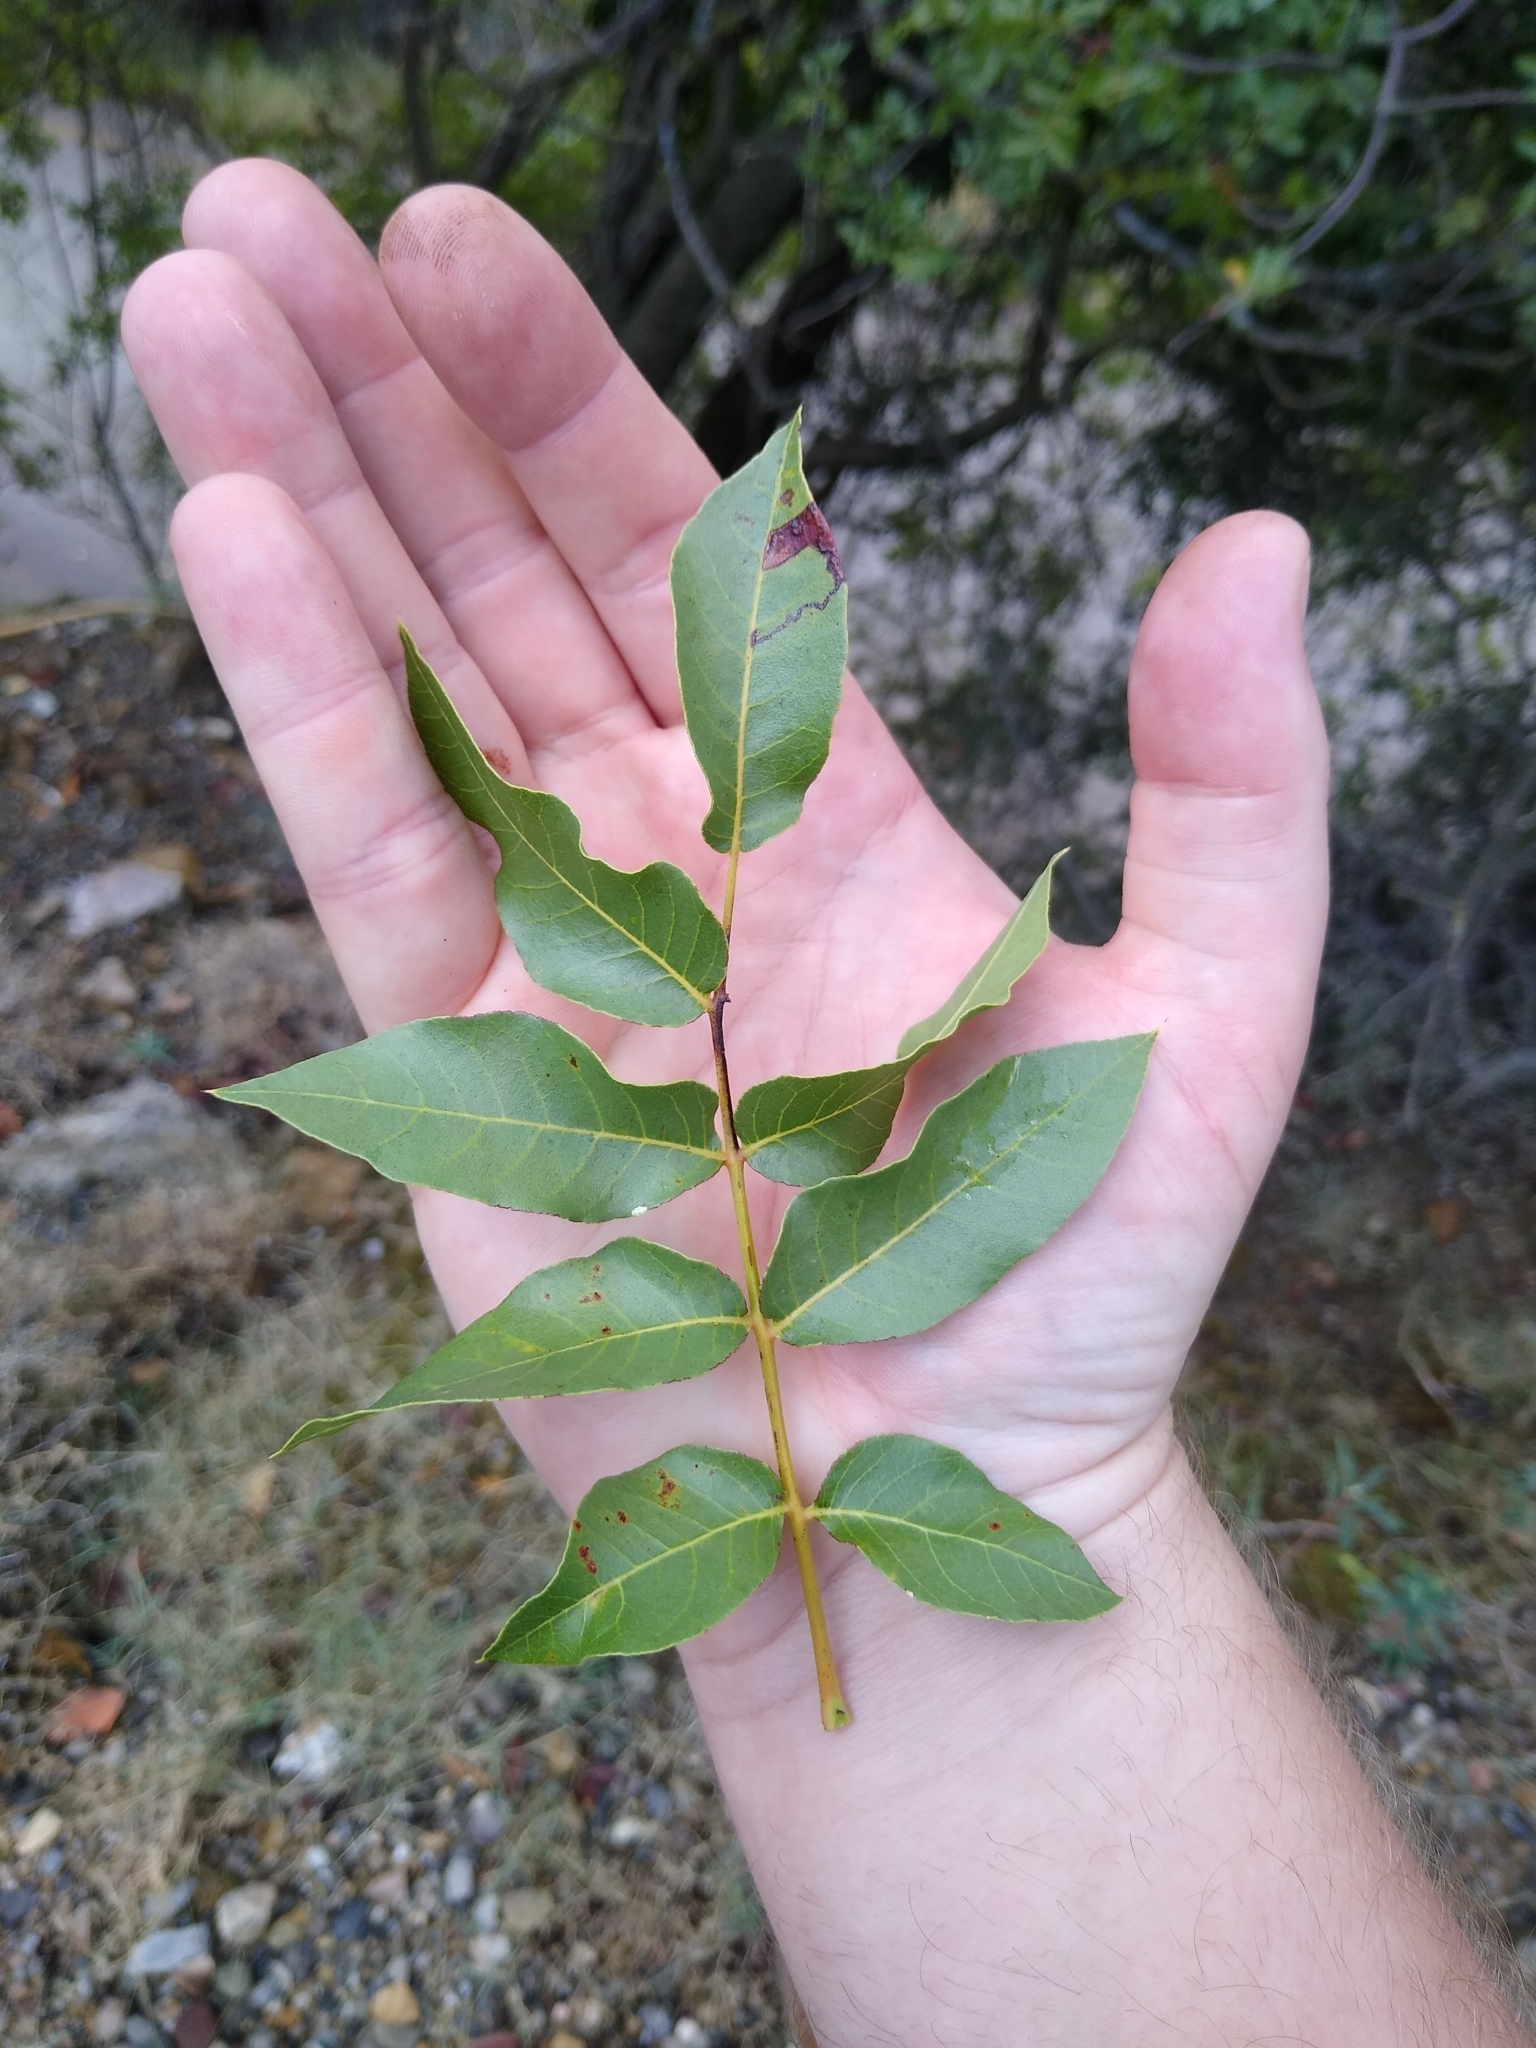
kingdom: Plantae
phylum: Tracheophyta
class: Magnoliopsida
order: Sapindales
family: Anacardiaceae
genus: Pistacia
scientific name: Pistacia terebinthus
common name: Terebinth
